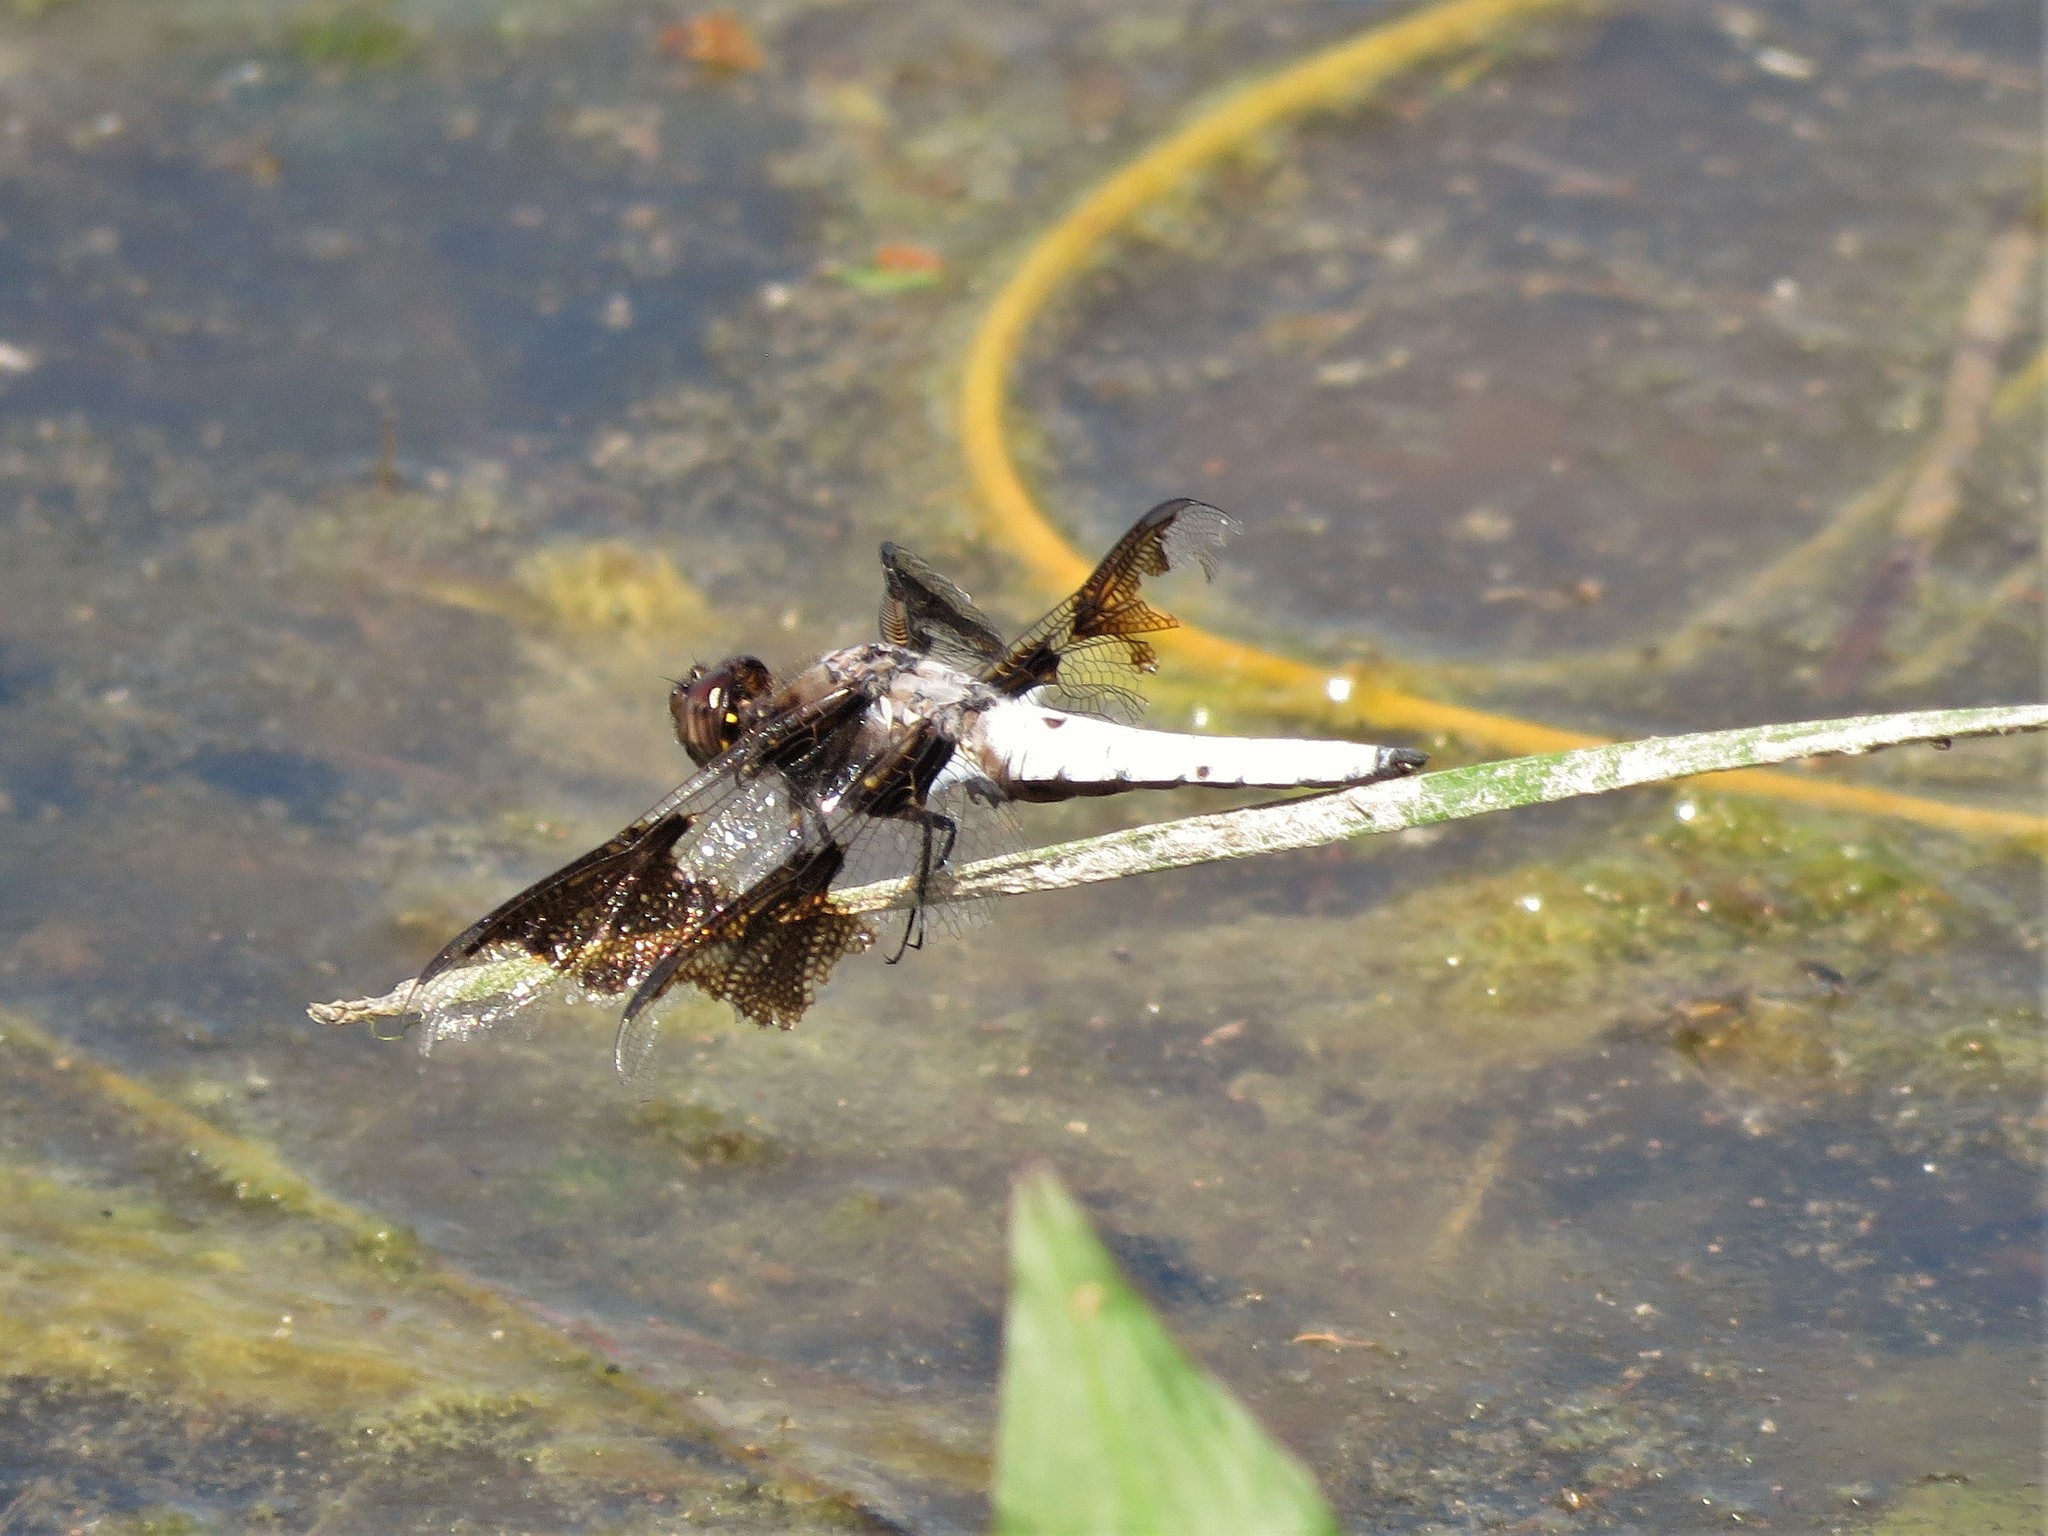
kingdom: Animalia
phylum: Arthropoda
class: Insecta
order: Odonata
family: Libellulidae
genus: Plathemis
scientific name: Plathemis lydia
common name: Common whitetail
